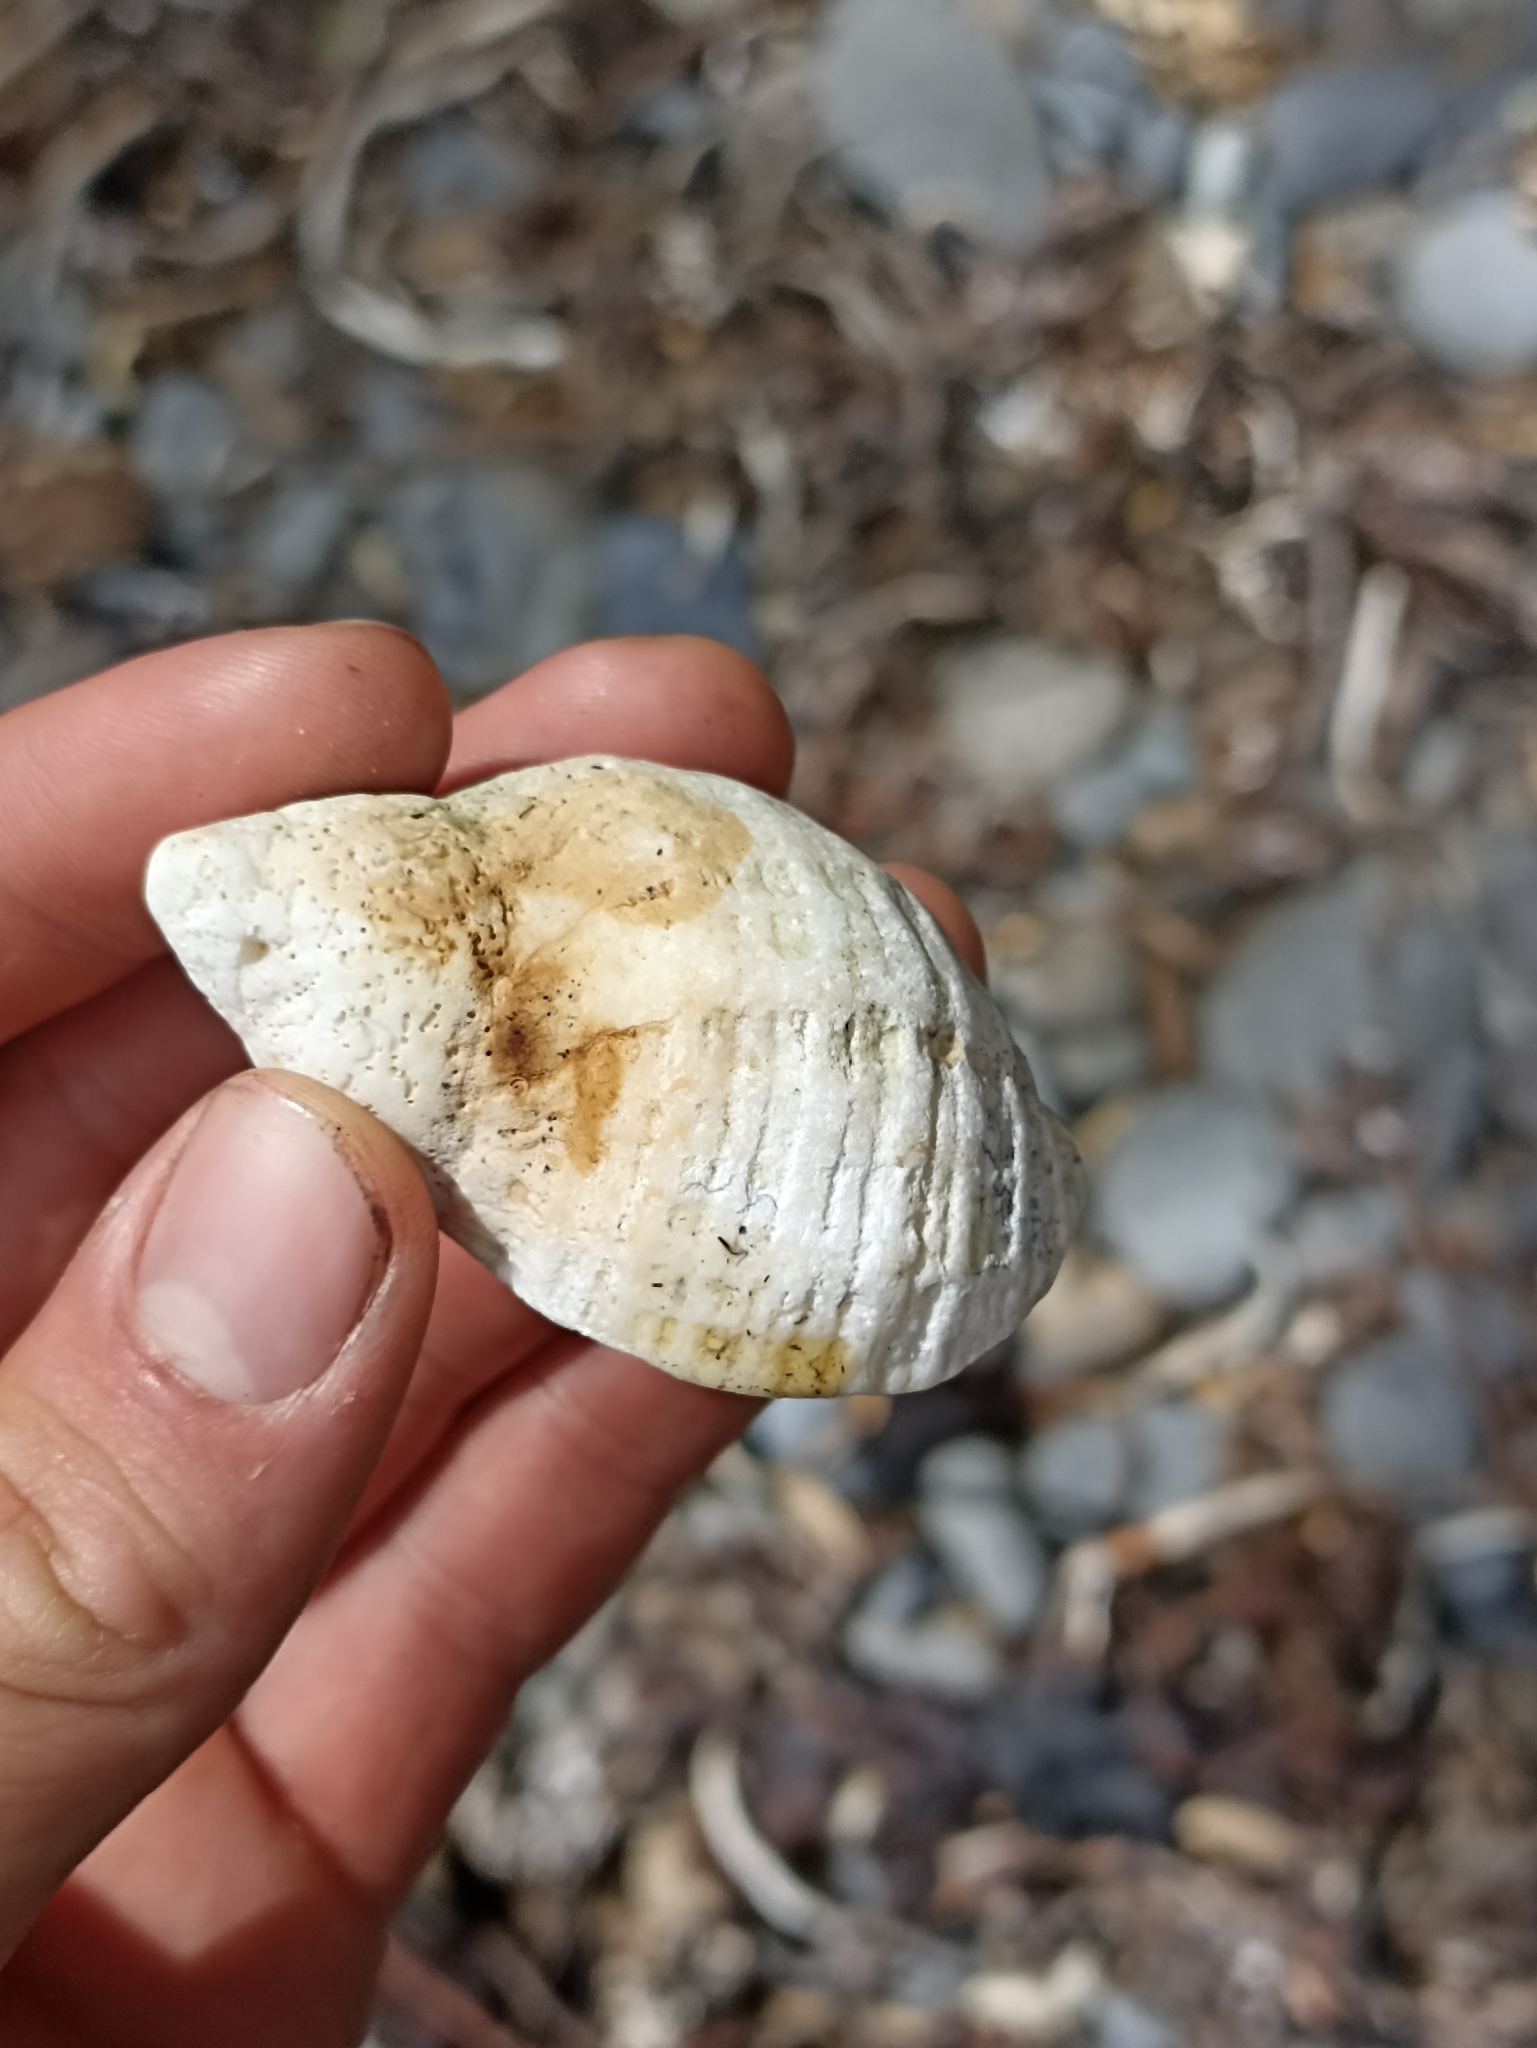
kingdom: Animalia
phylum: Mollusca
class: Gastropoda
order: Neogastropoda
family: Muricidae
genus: Dicathais
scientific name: Dicathais orbita
